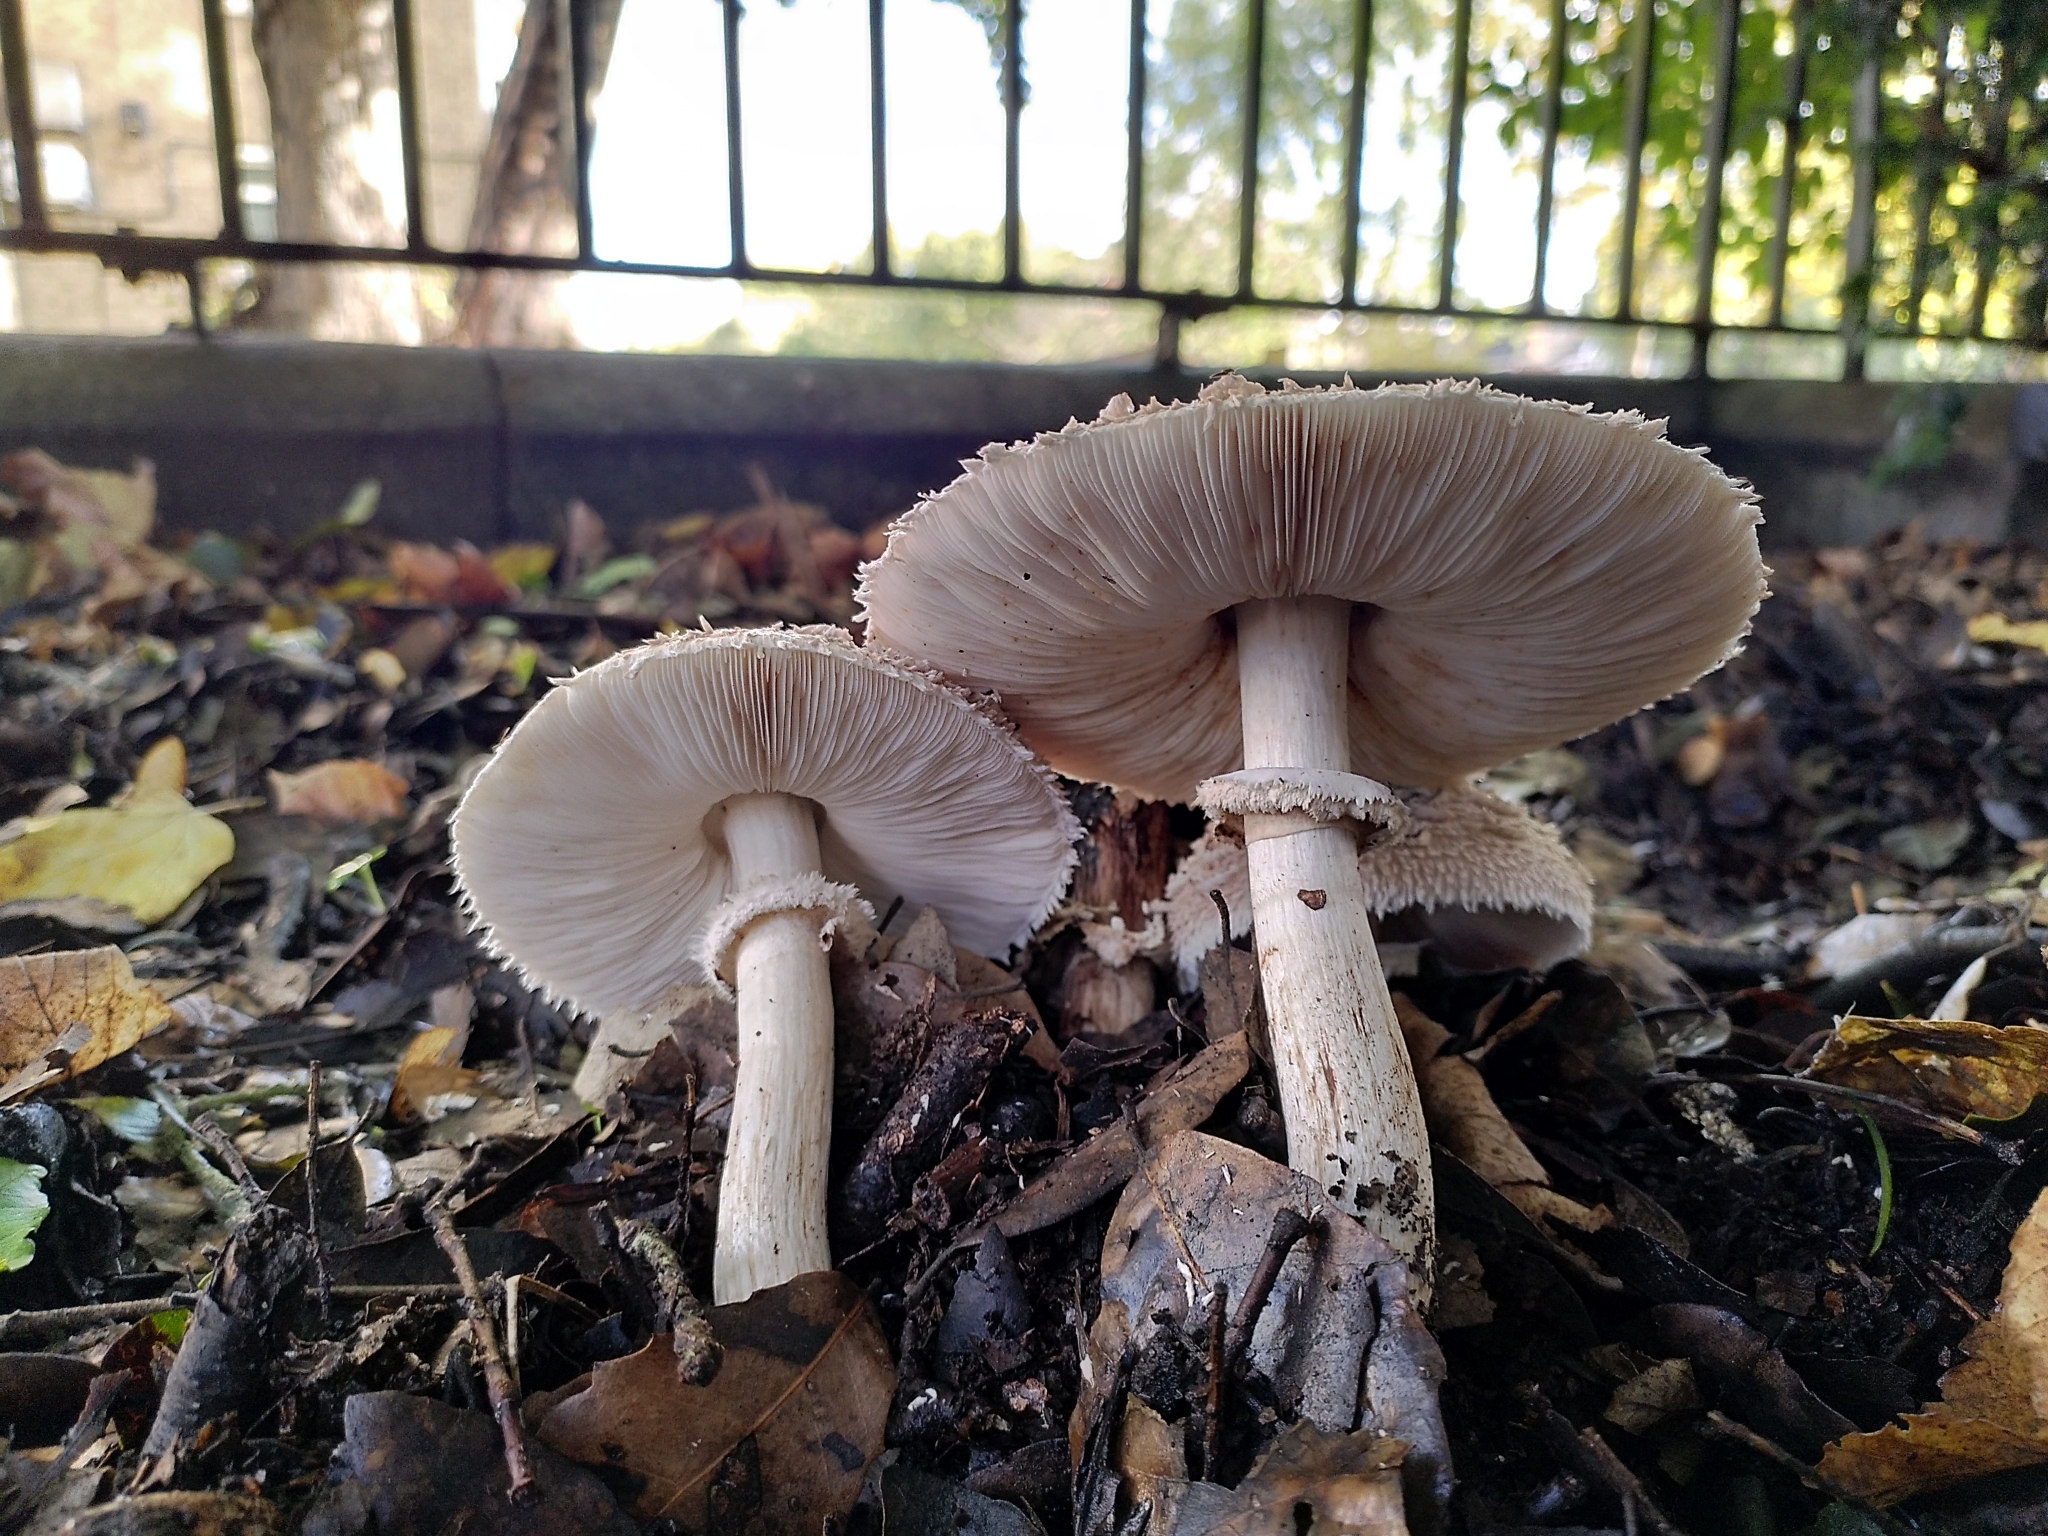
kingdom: Fungi
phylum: Basidiomycota
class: Agaricomycetes
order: Agaricales
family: Agaricaceae
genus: Chlorophyllum
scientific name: Chlorophyllum rhacodes
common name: Shaggy parasol
